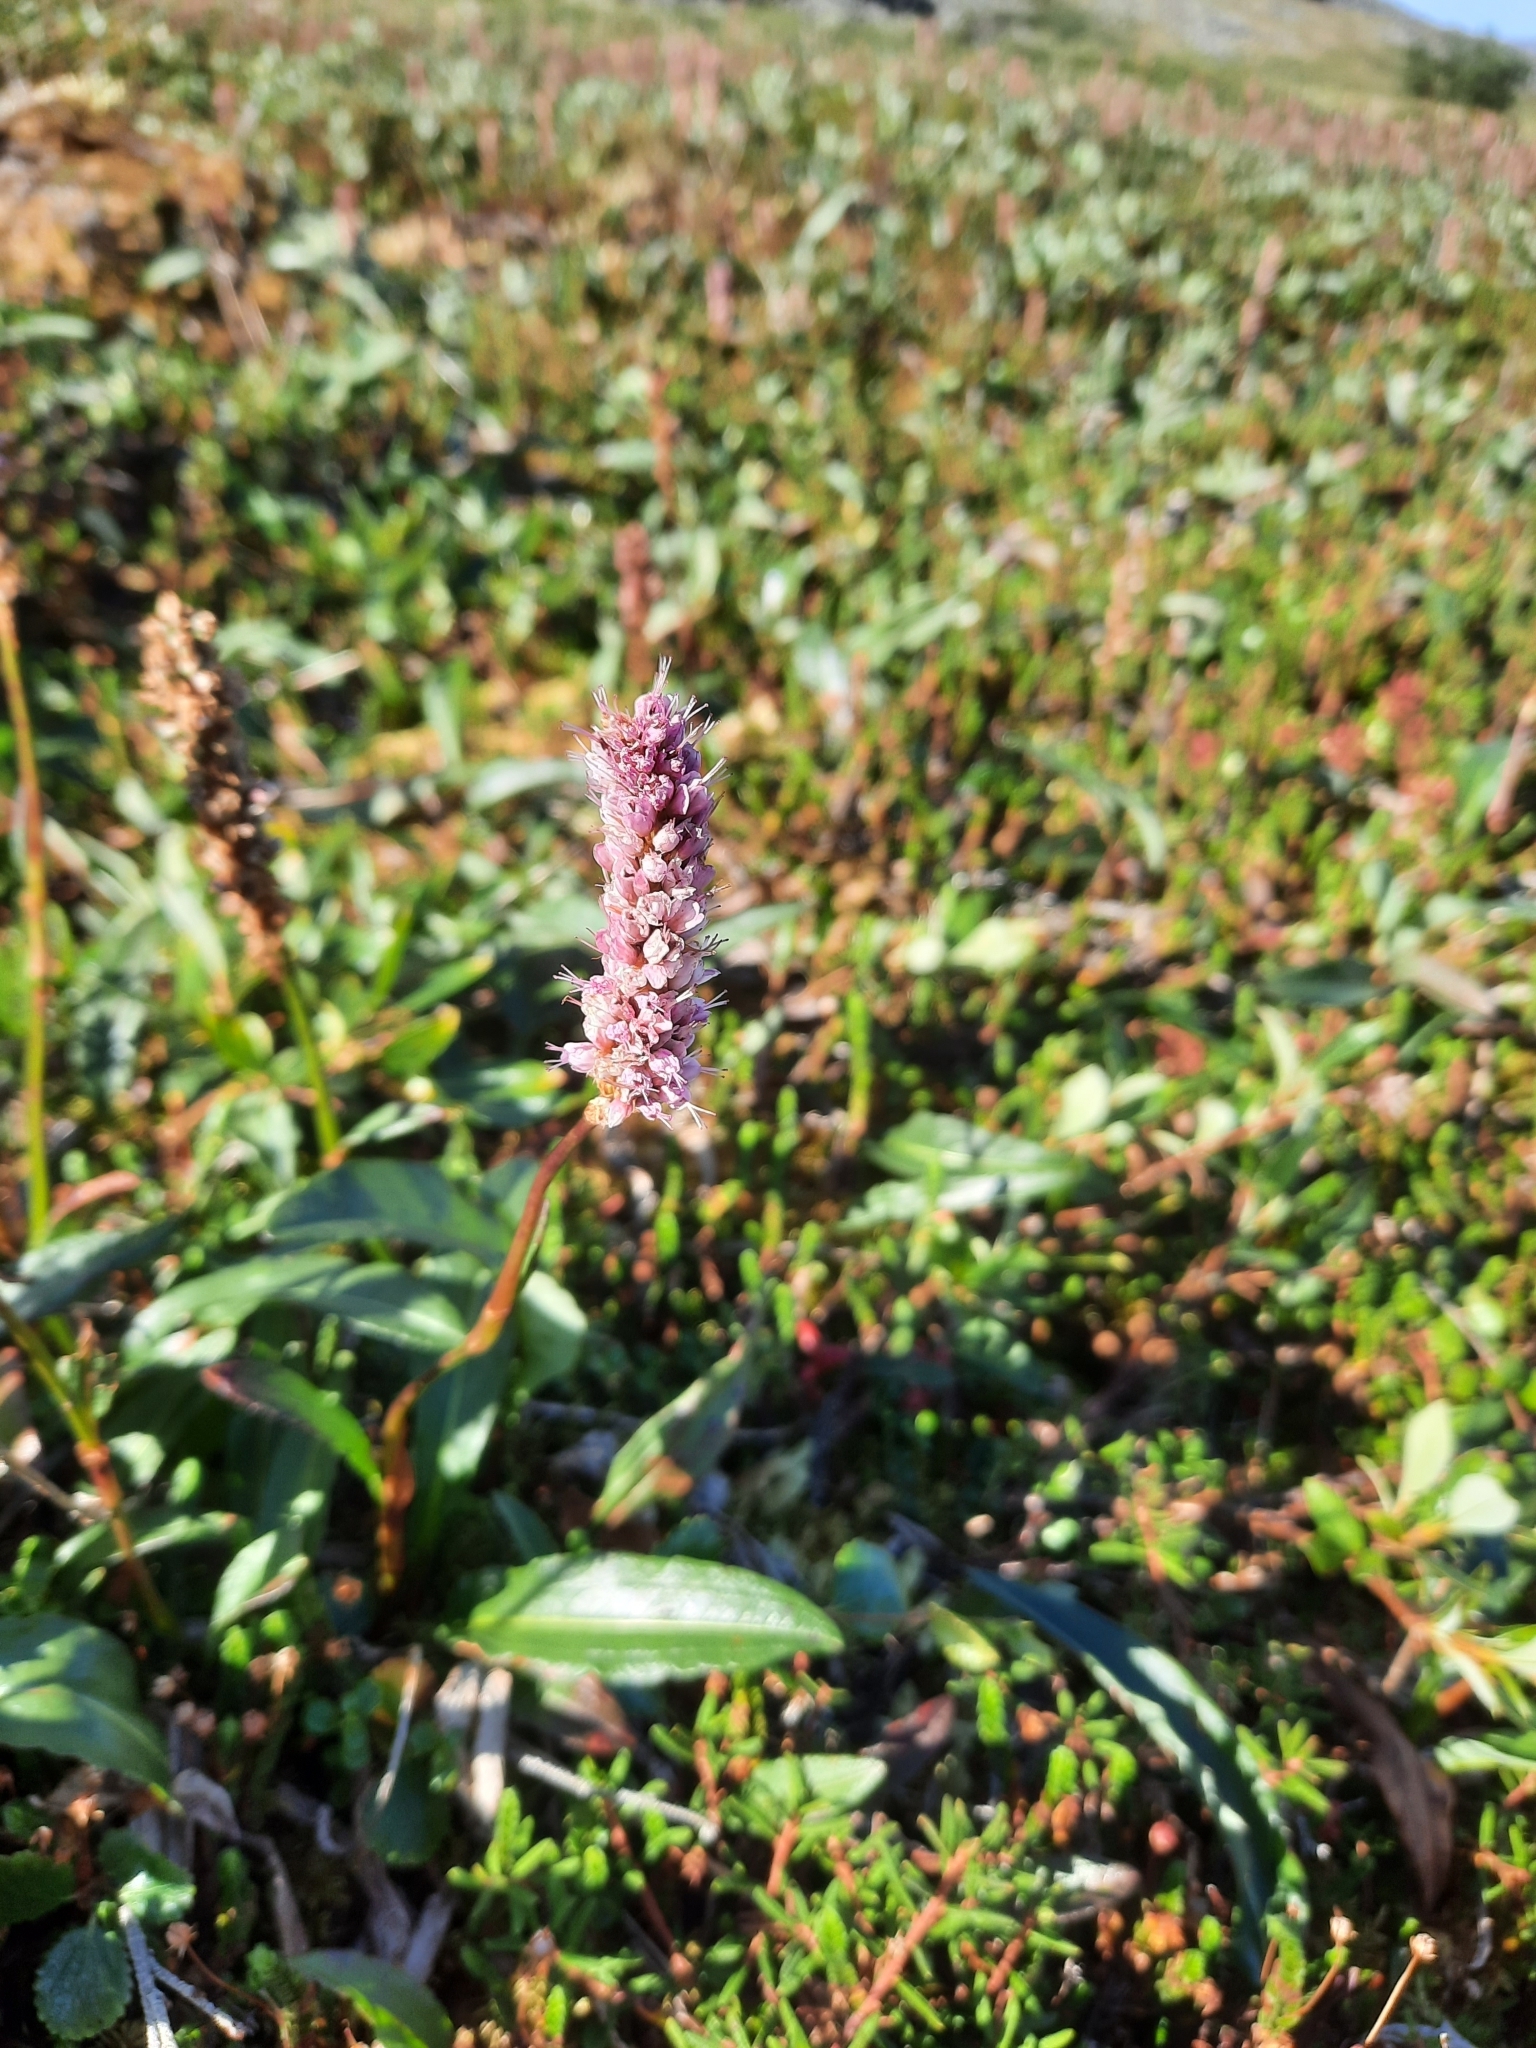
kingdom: Plantae
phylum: Tracheophyta
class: Magnoliopsida
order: Caryophyllales
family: Polygonaceae
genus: Bistorta
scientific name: Bistorta plumosa
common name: Meadow bistort
